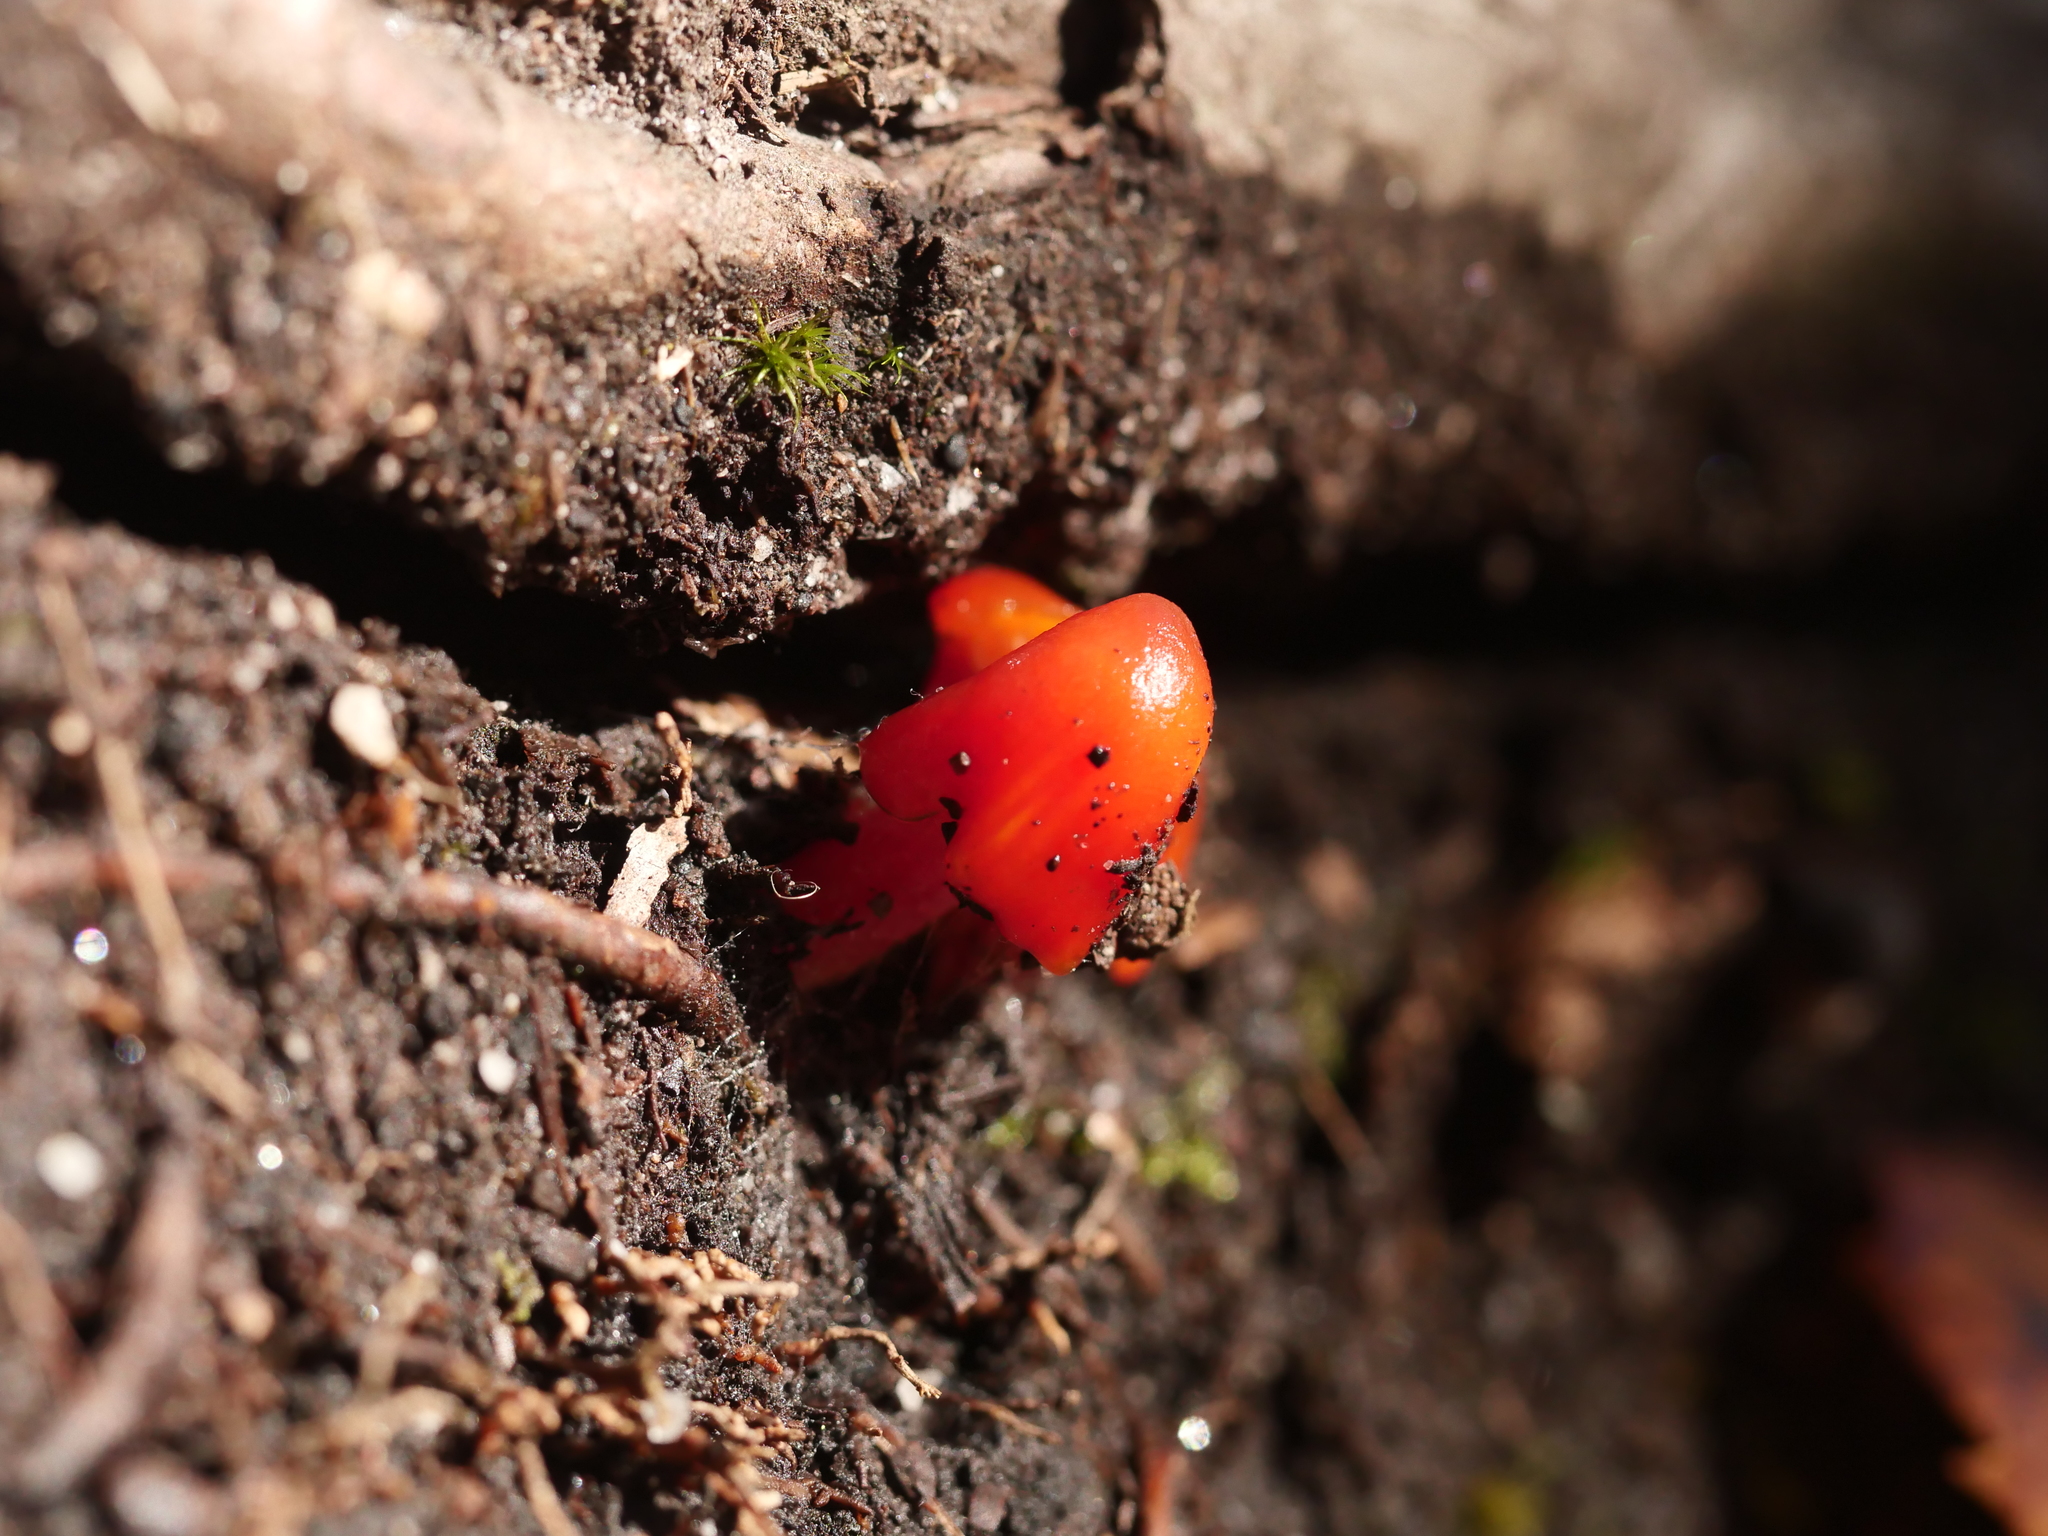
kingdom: Fungi
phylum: Basidiomycota
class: Agaricomycetes
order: Agaricales
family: Hygrophoraceae
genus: Hygrocybe
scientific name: Hygrocybe miniata
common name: Vermilion waxcap
